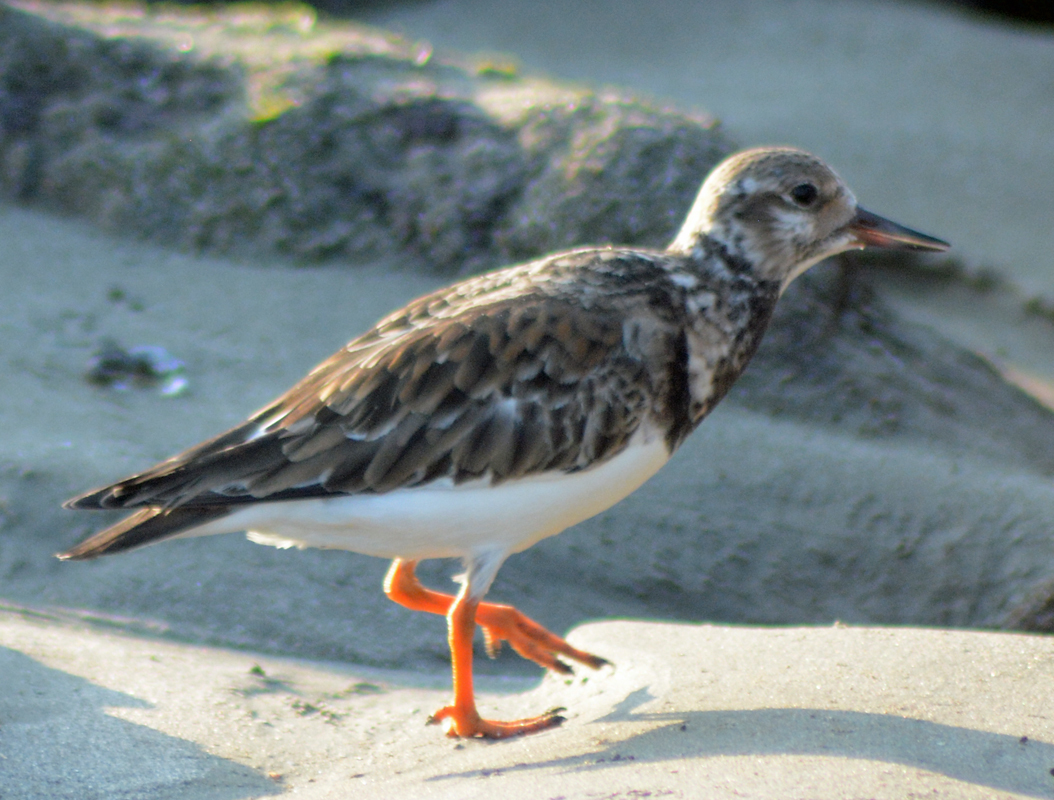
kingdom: Animalia
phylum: Chordata
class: Aves
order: Charadriiformes
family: Scolopacidae
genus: Arenaria
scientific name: Arenaria interpres
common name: Ruddy turnstone
